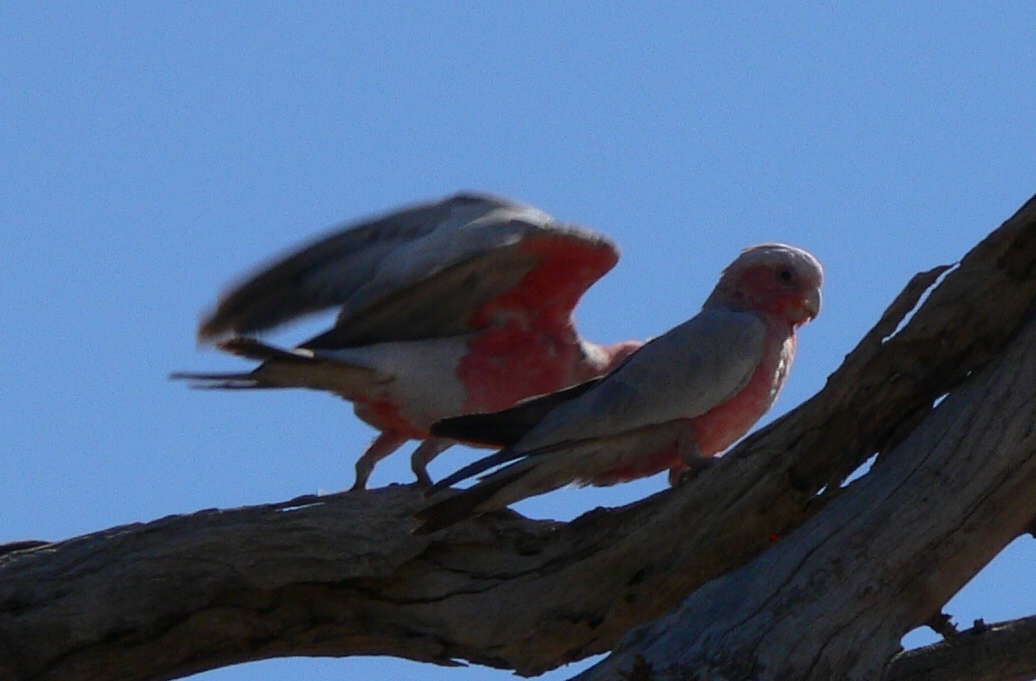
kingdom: Animalia
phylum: Chordata
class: Aves
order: Psittaciformes
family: Psittacidae
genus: Eolophus
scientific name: Eolophus roseicapilla
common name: Galah
